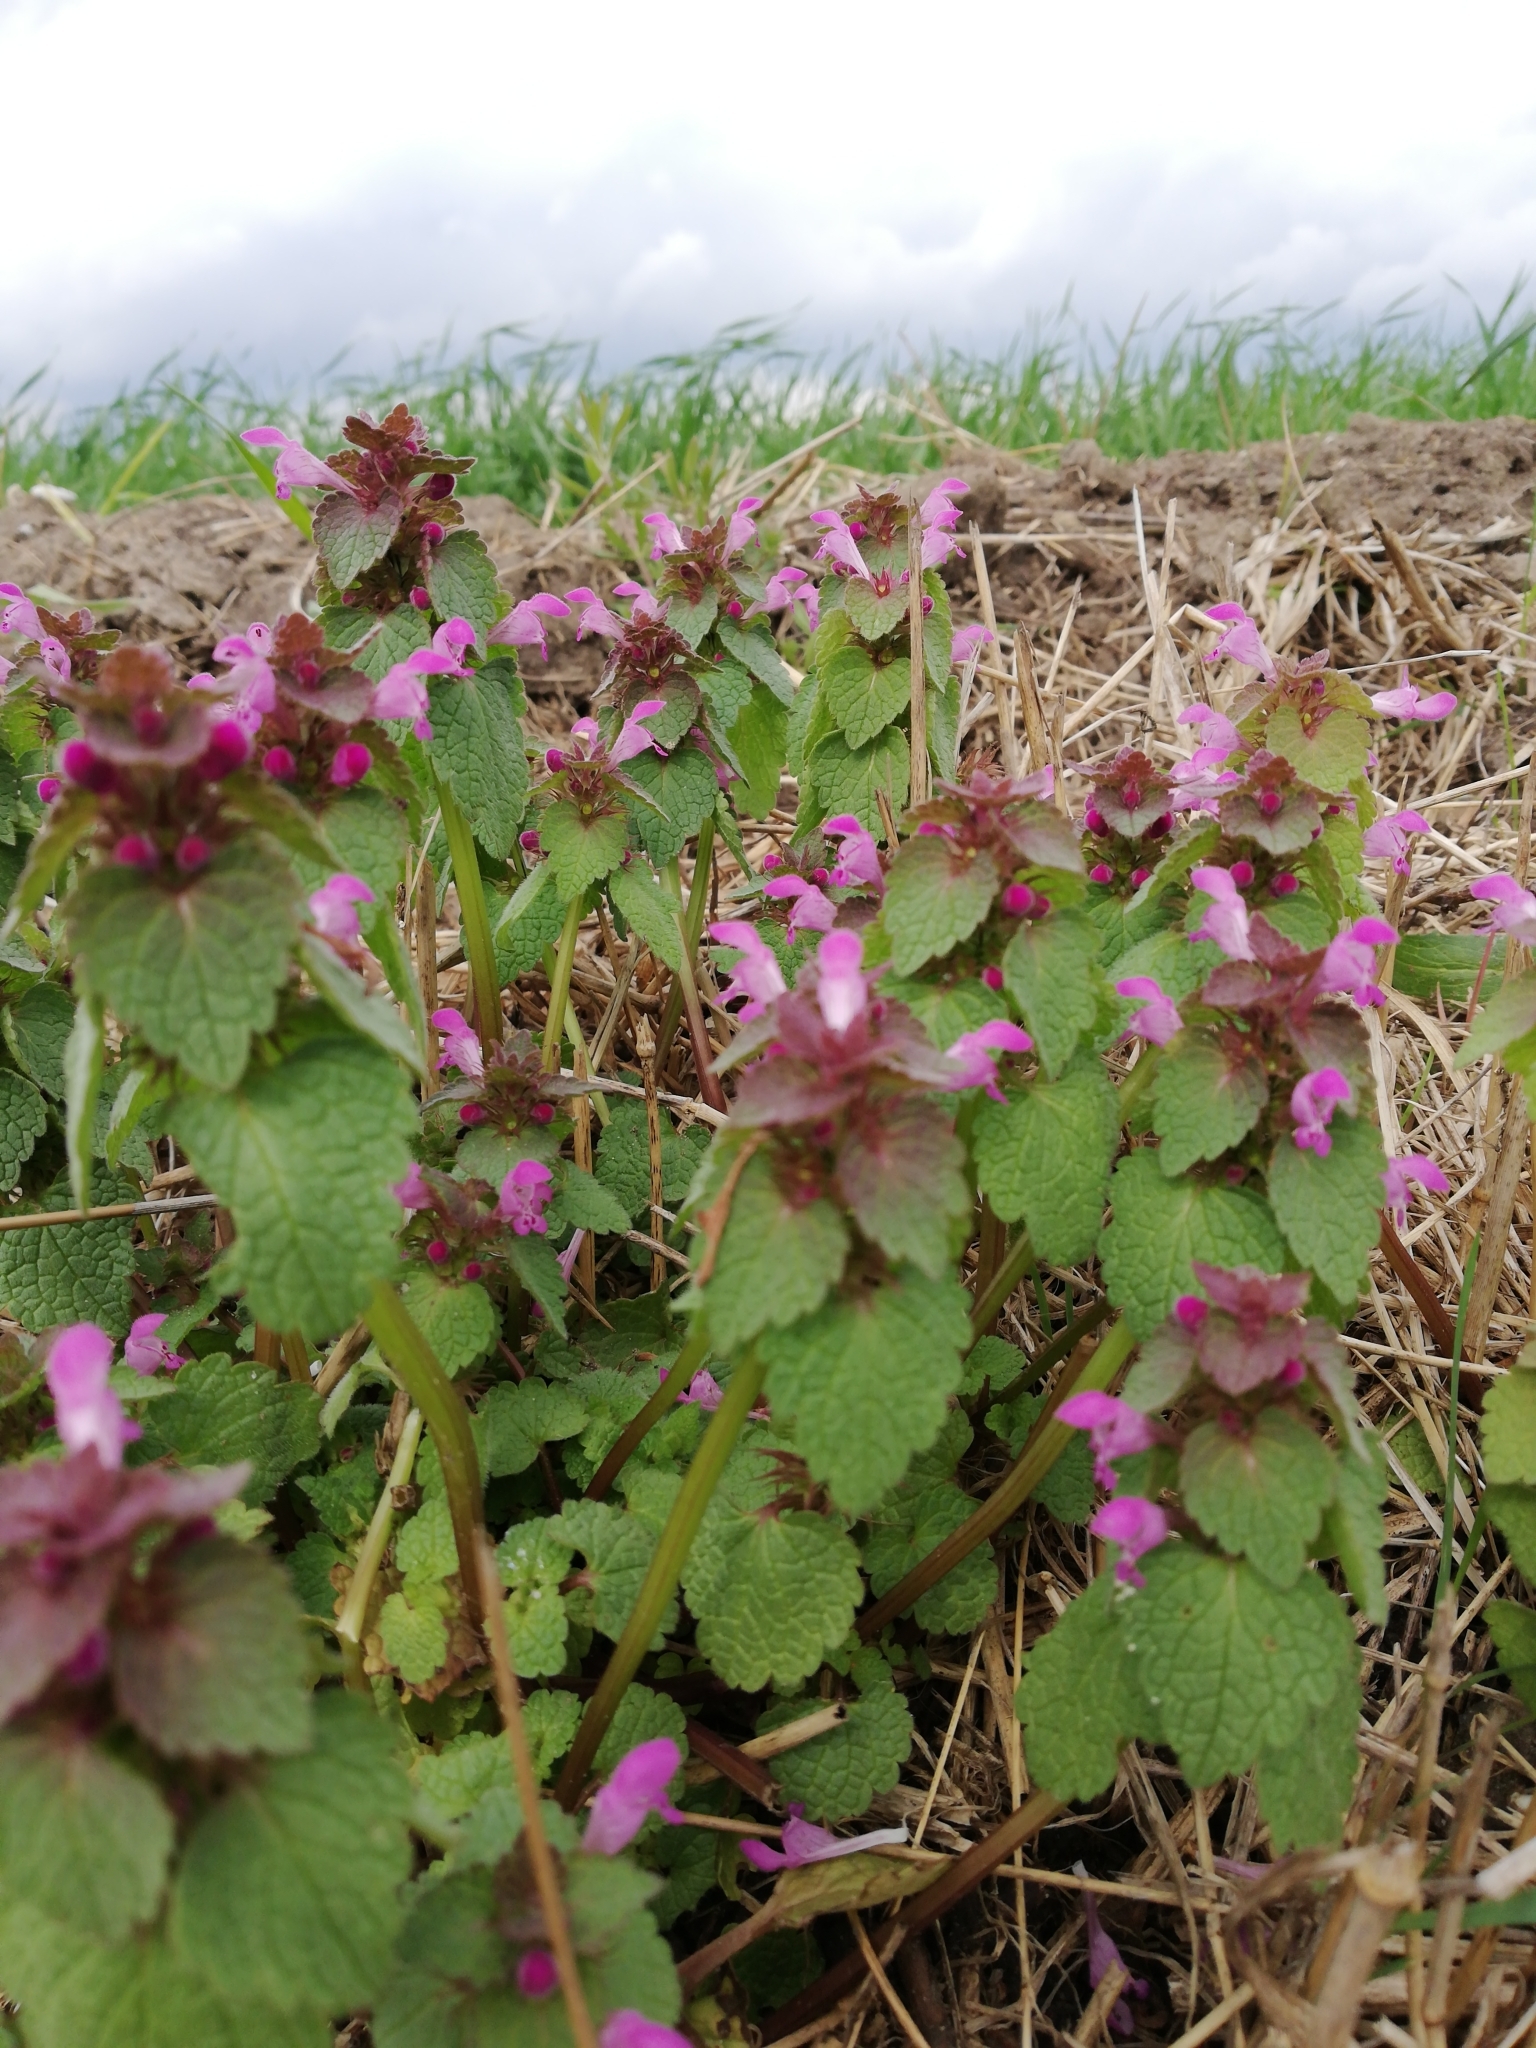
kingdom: Plantae
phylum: Tracheophyta
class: Magnoliopsida
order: Lamiales
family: Lamiaceae
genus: Lamium
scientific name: Lamium purpureum
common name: Red dead-nettle
